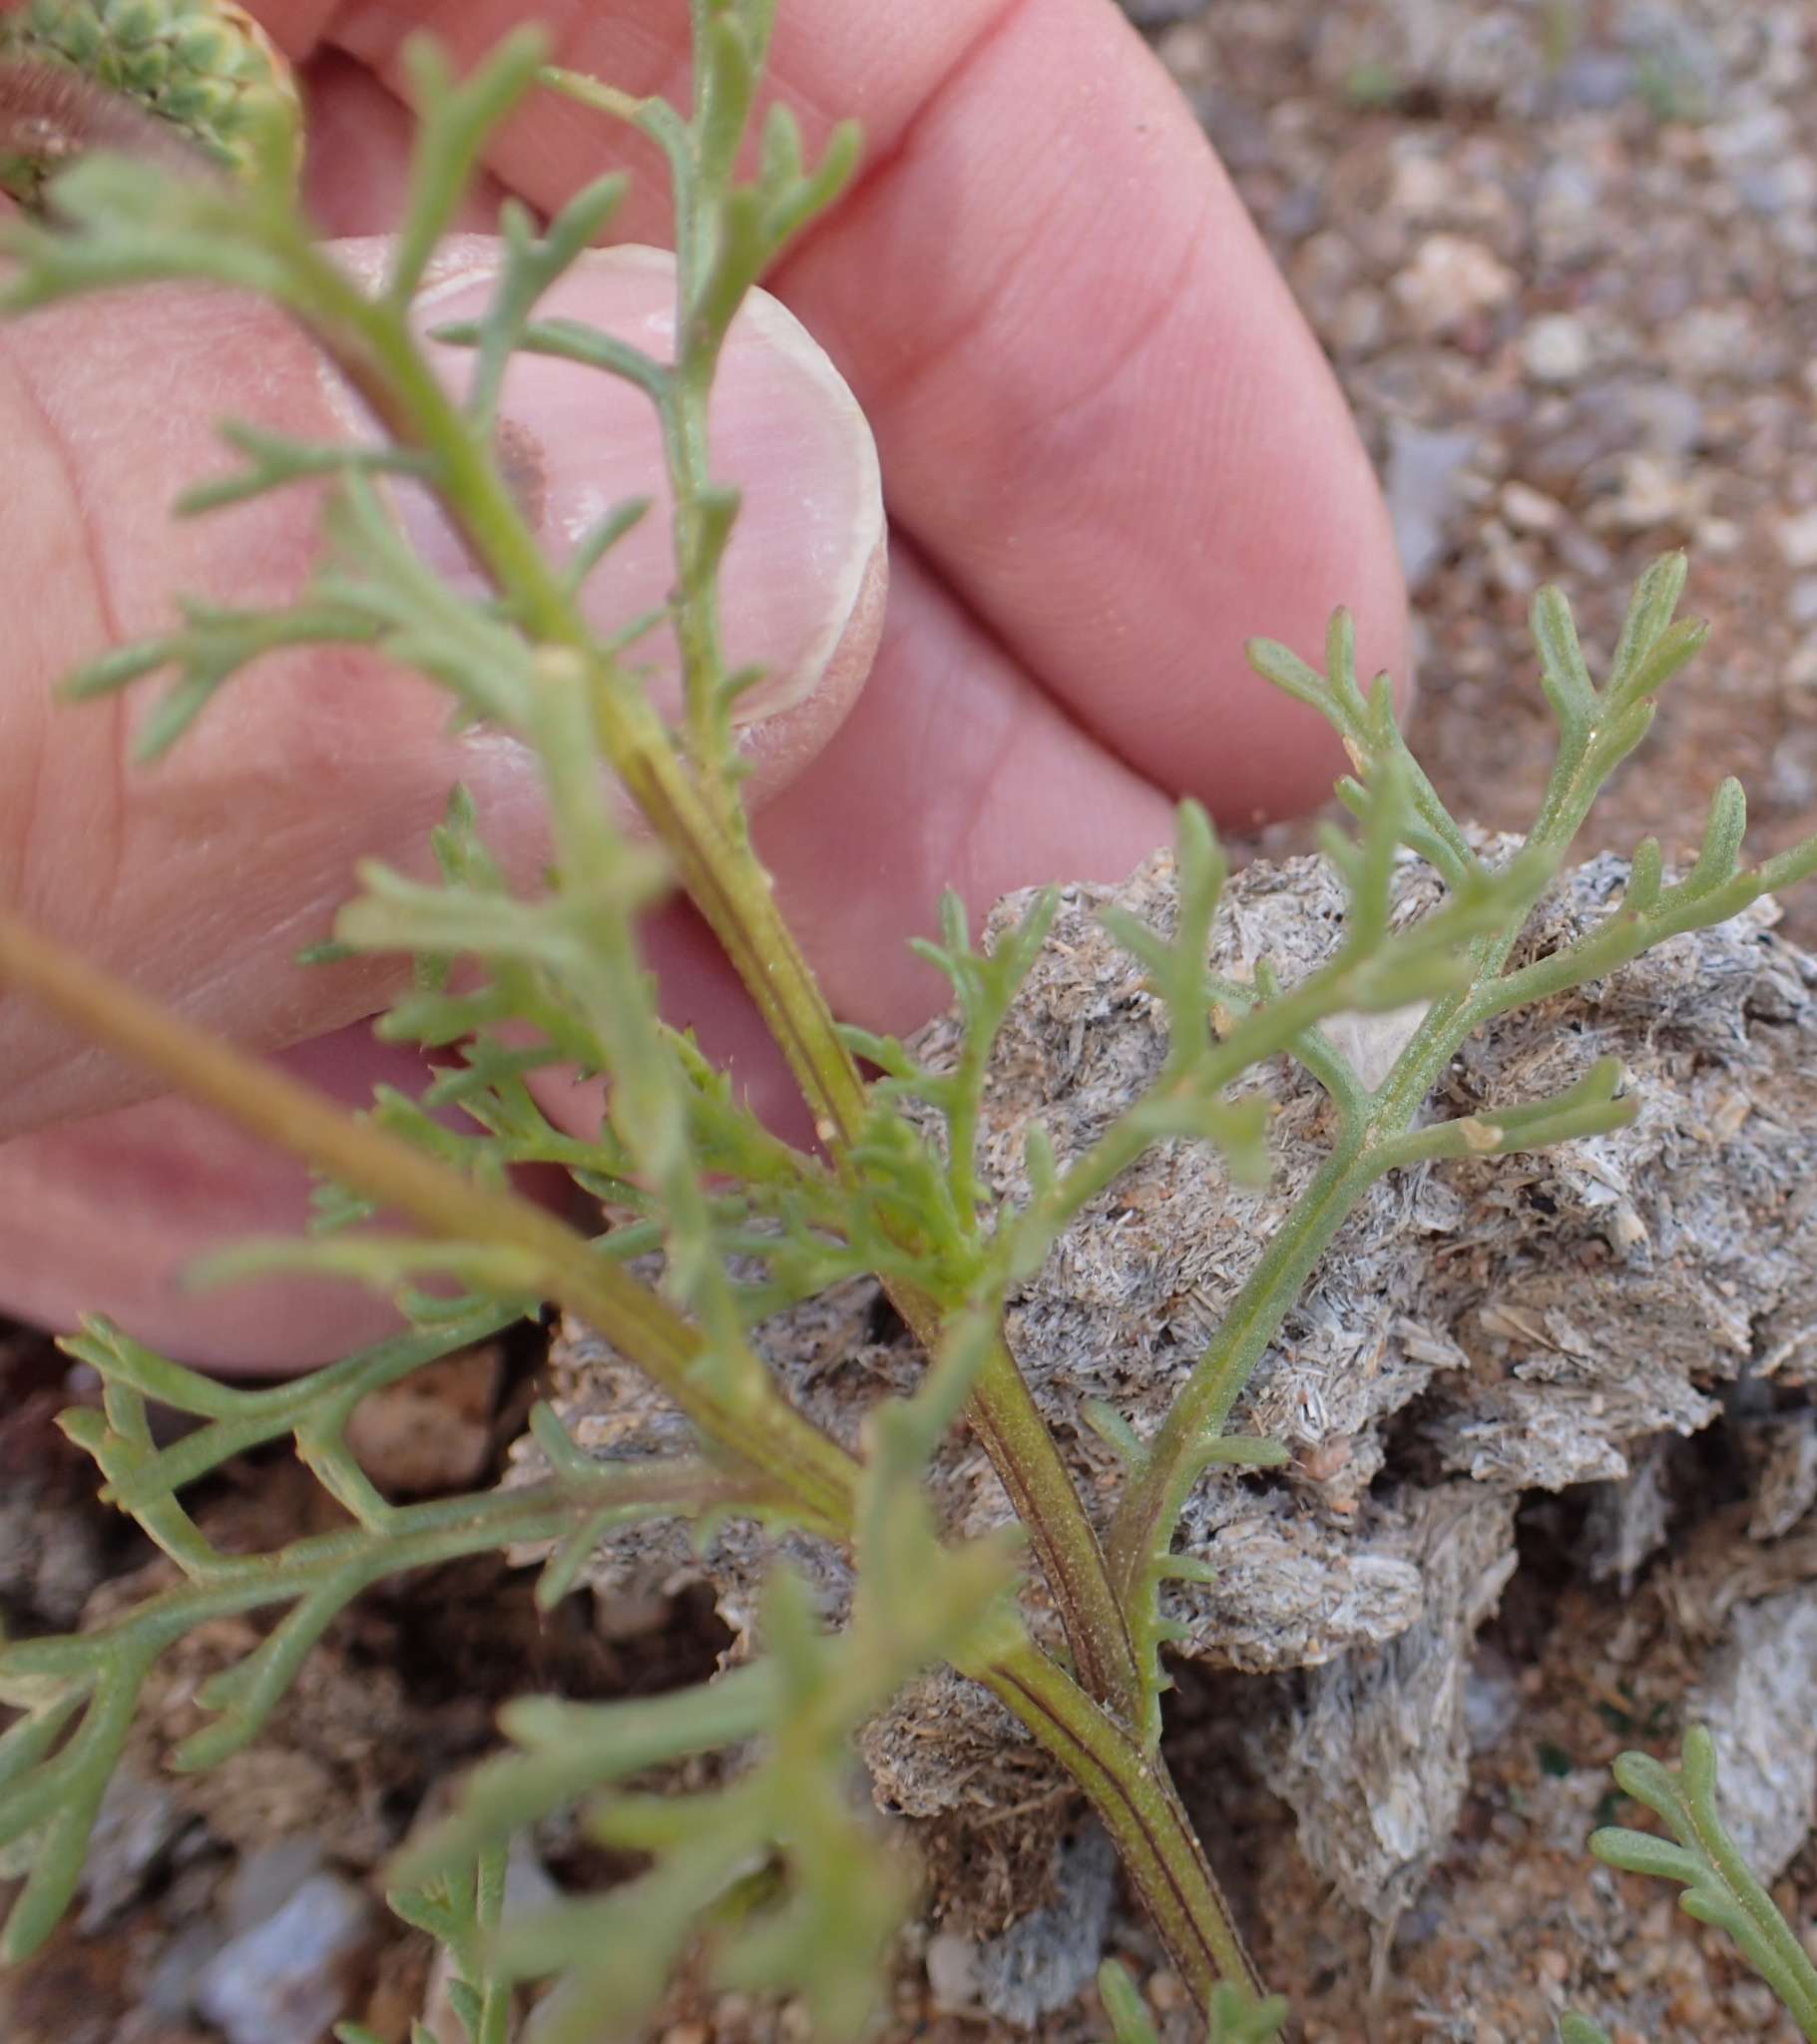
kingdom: Plantae
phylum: Tracheophyta
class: Magnoliopsida
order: Asterales
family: Asteraceae
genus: Ursinia
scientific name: Ursinia cakilefolia
